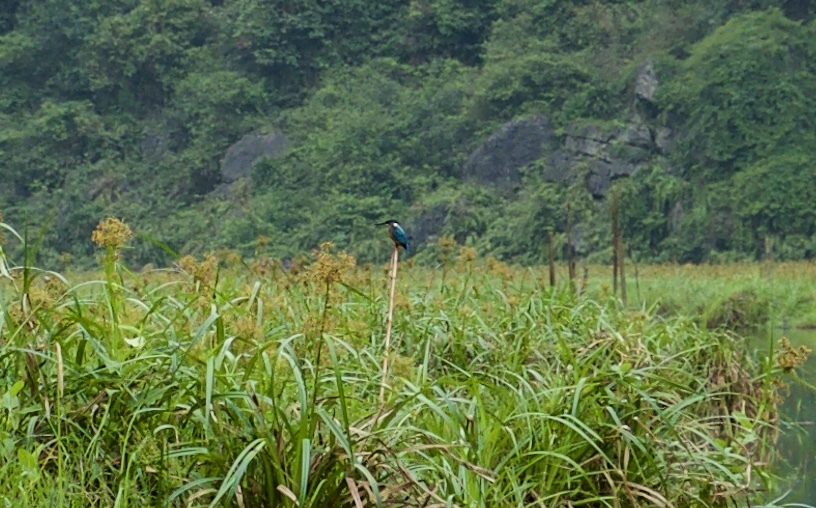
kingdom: Animalia
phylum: Chordata
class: Aves
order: Coraciiformes
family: Alcedinidae
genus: Alcedo
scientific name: Alcedo atthis
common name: Common kingfisher
